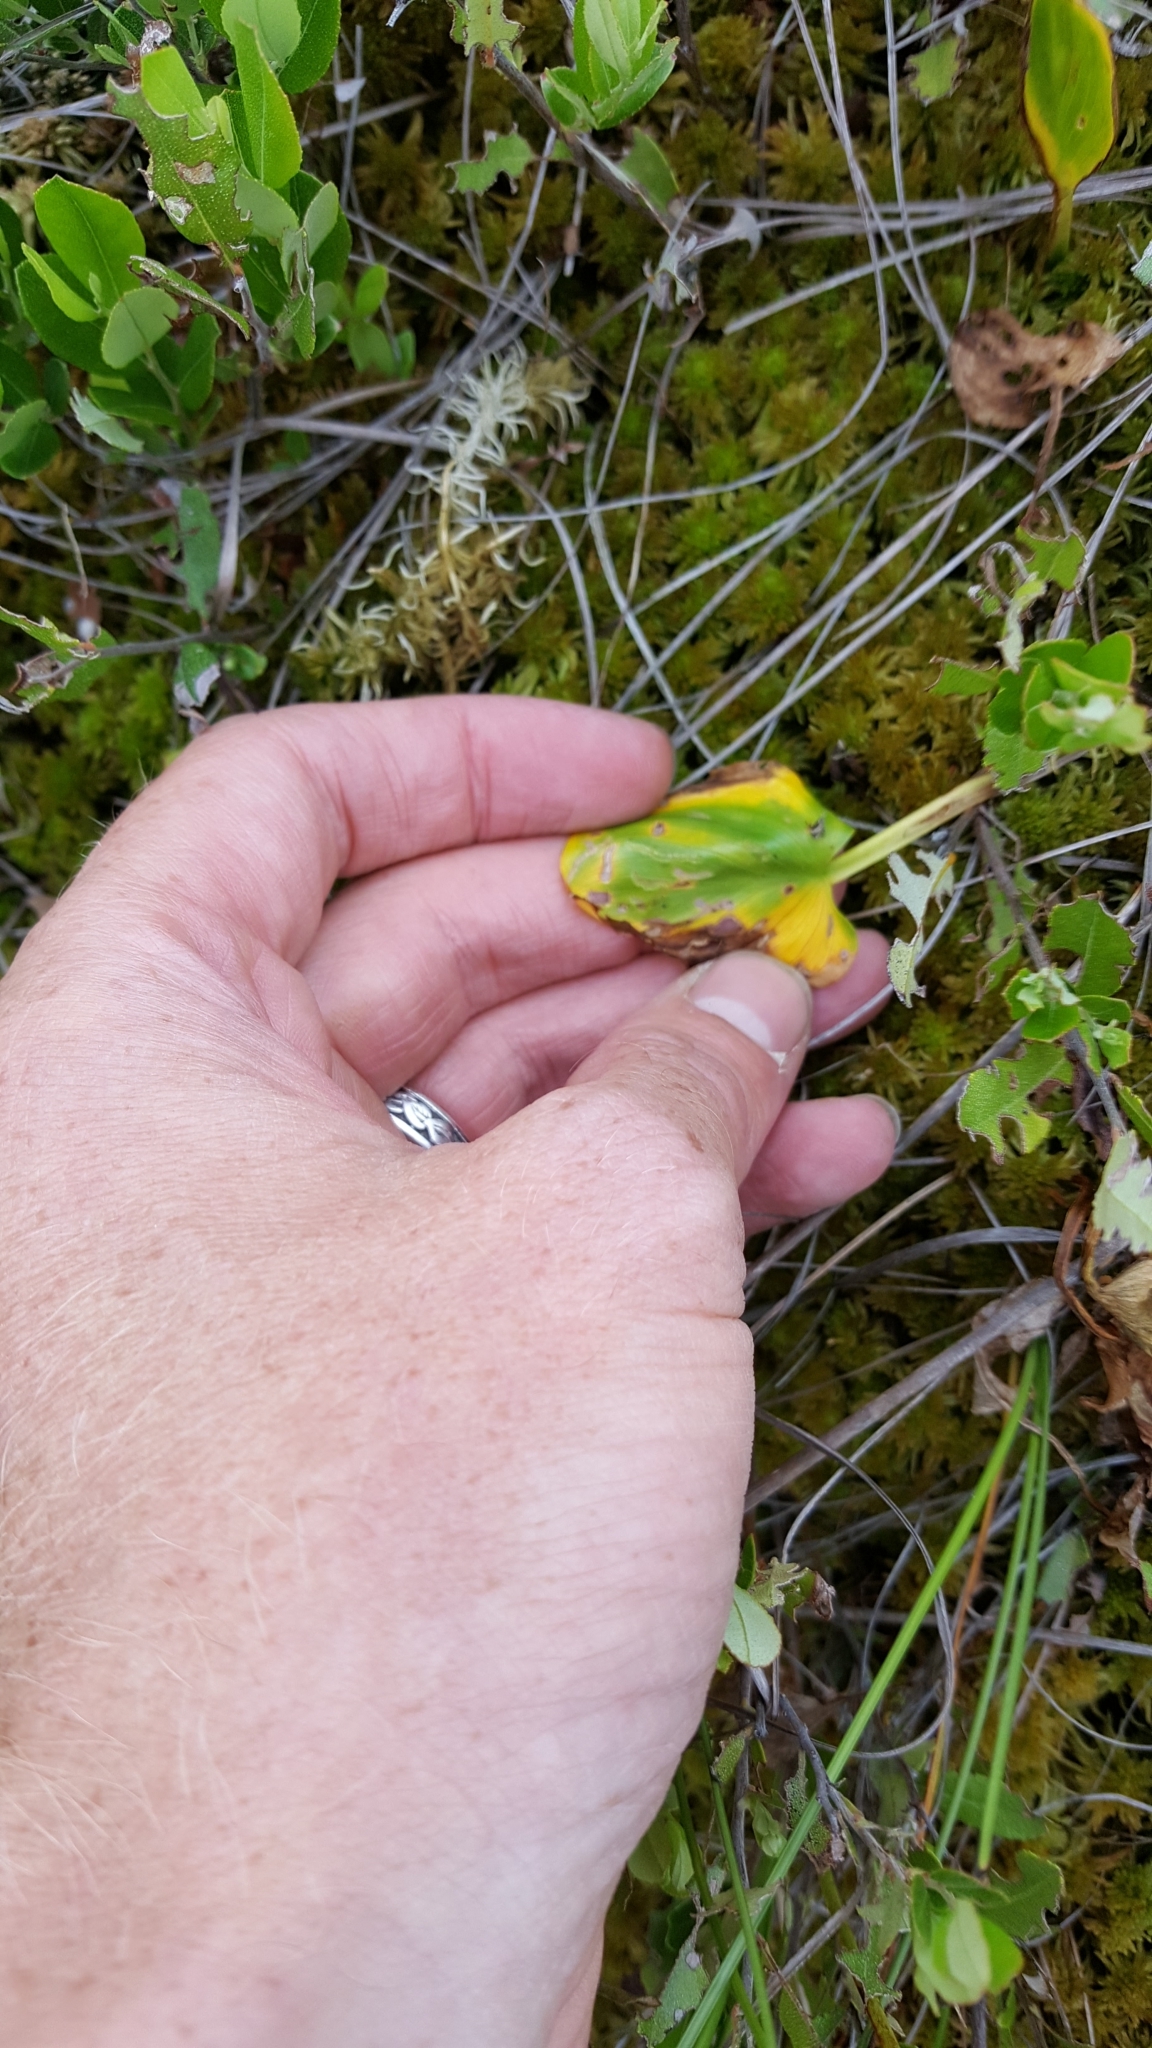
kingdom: Plantae
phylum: Tracheophyta
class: Liliopsida
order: Alismatales
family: Araceae
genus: Calla
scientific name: Calla palustris
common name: Bog arum
